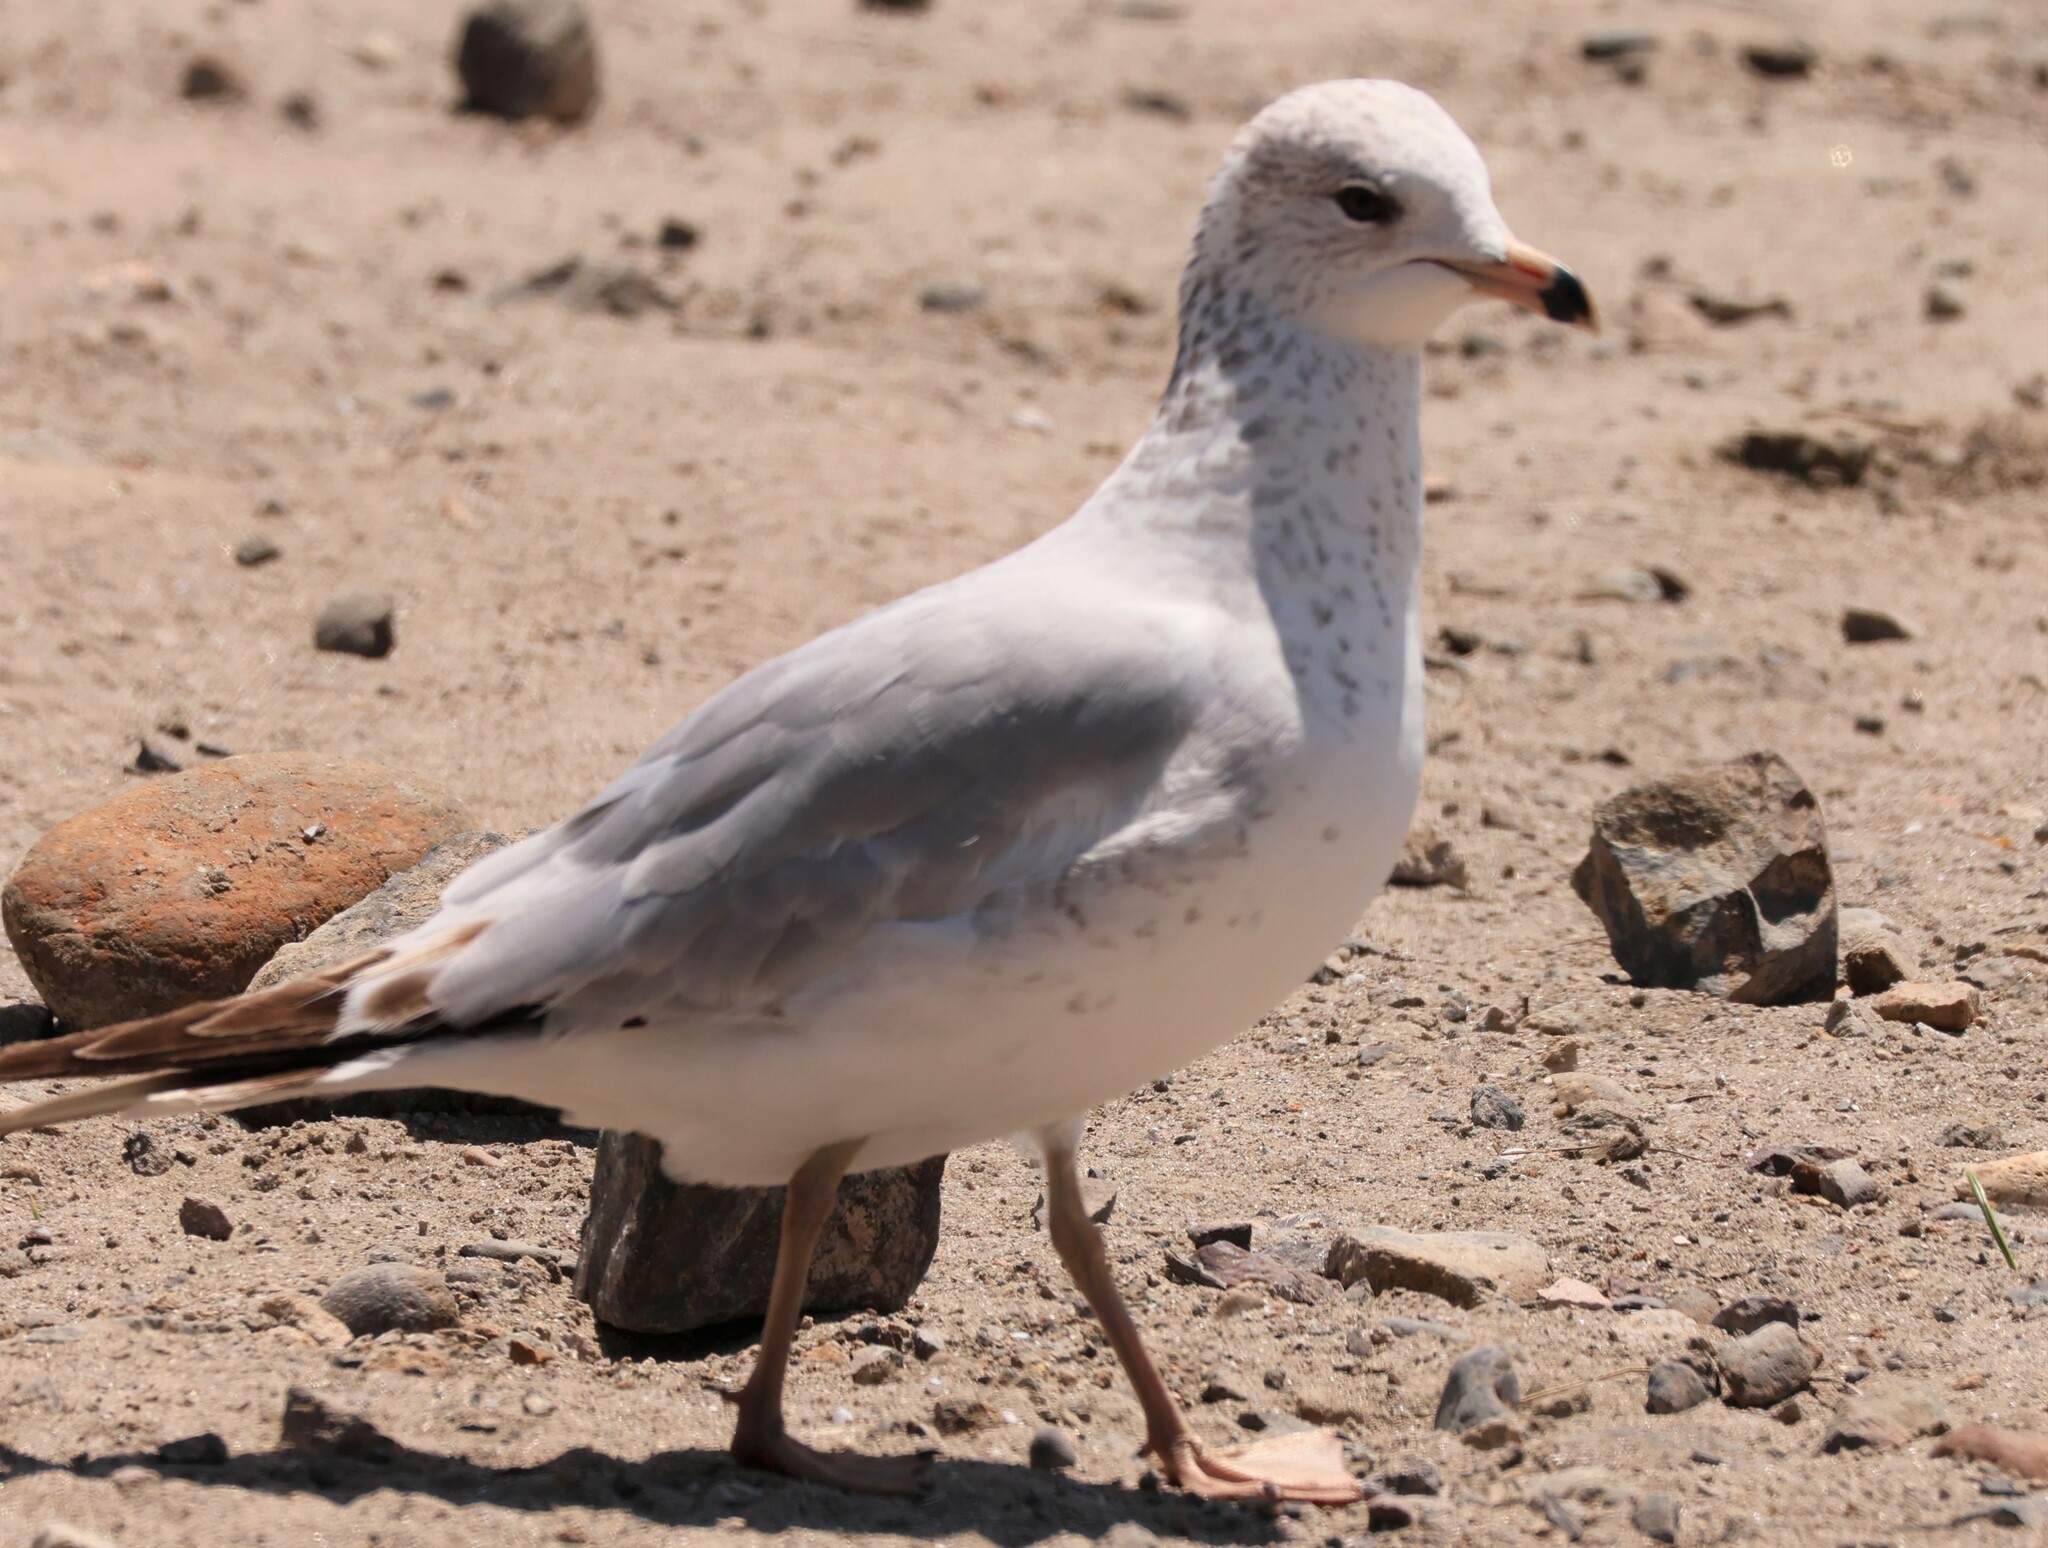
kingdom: Animalia
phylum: Chordata
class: Aves
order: Charadriiformes
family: Laridae
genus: Larus
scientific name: Larus delawarensis
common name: Ring-billed gull
